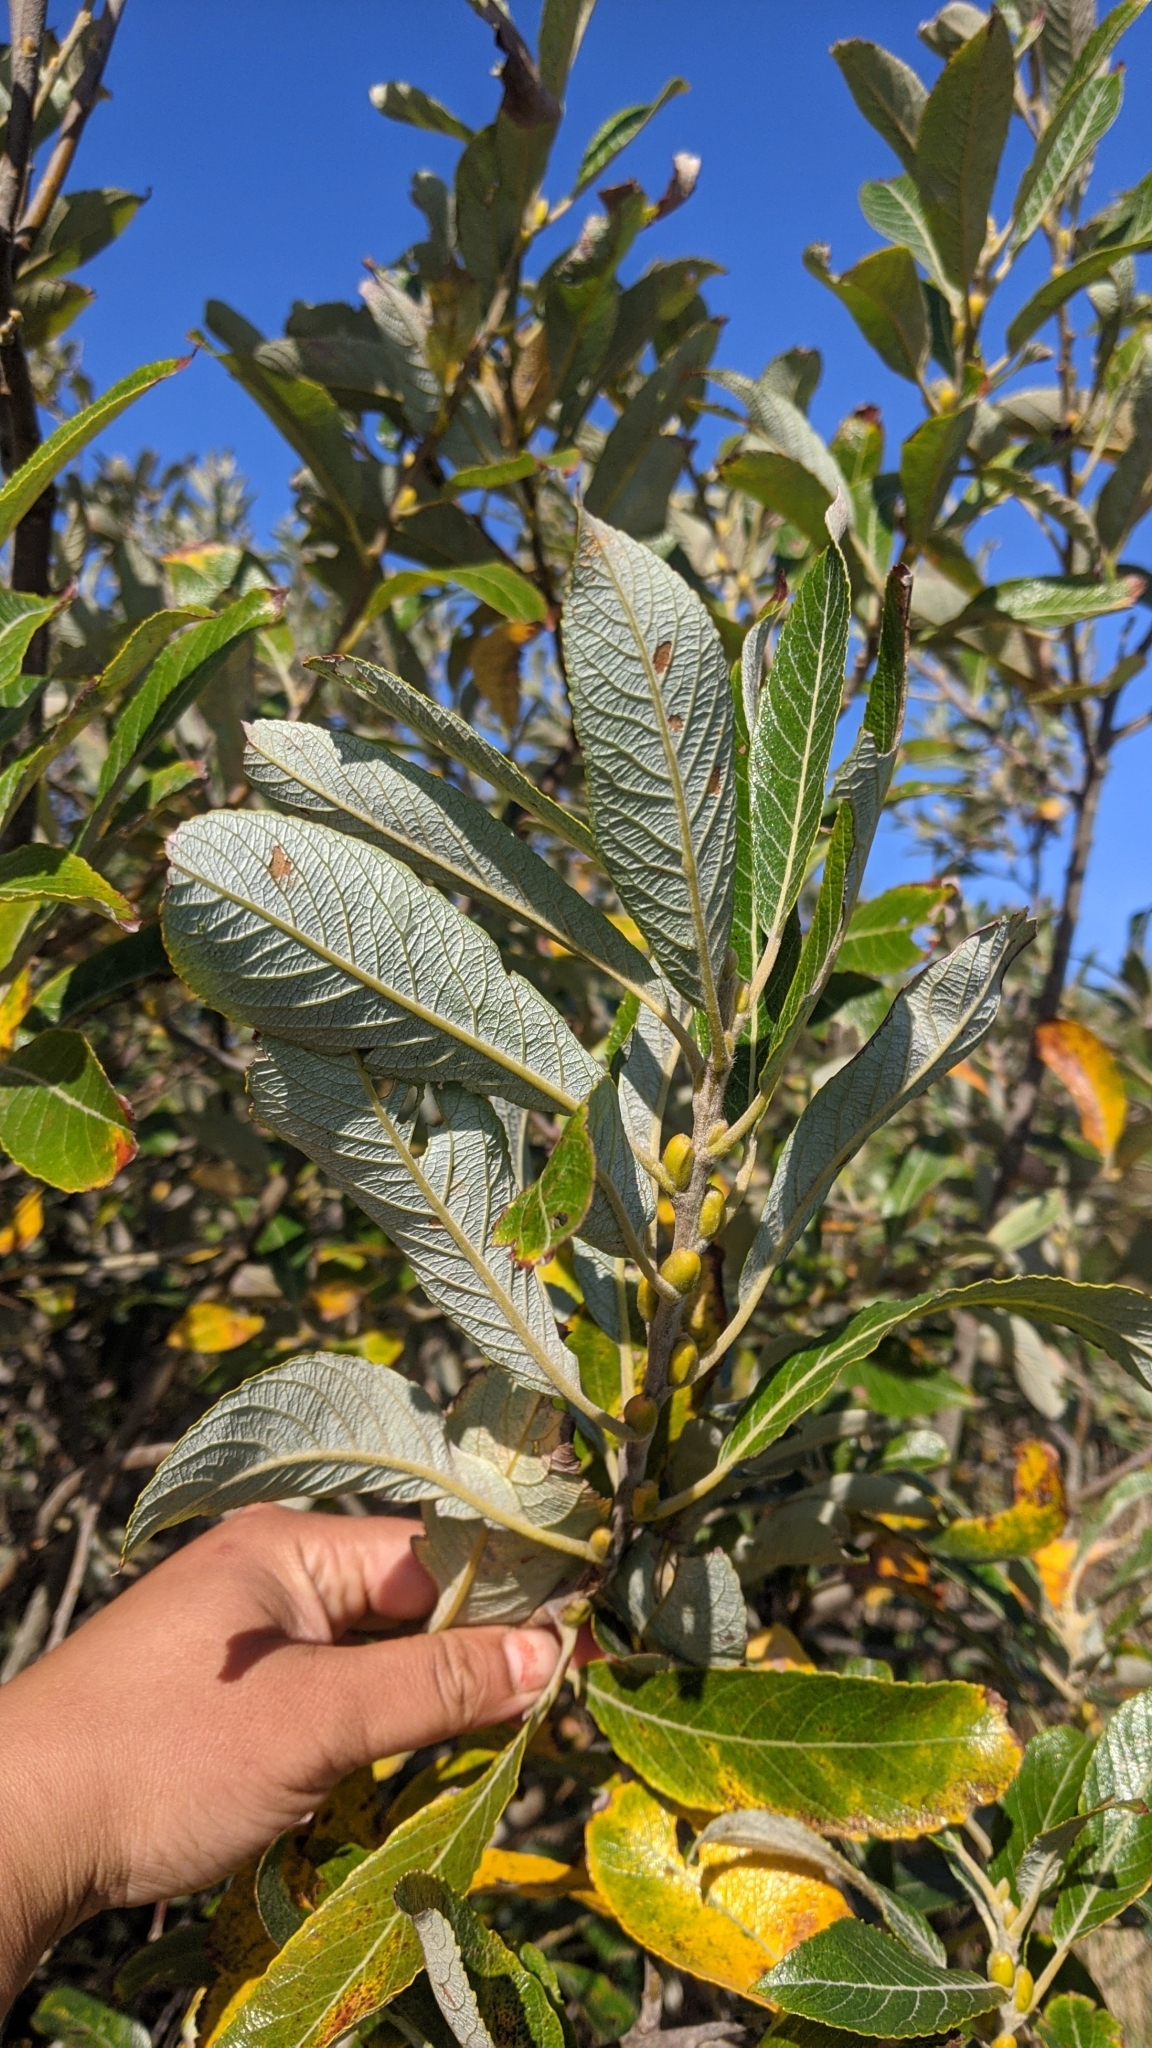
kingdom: Plantae
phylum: Tracheophyta
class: Magnoliopsida
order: Malpighiales
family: Salicaceae
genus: Salix
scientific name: Salix hookeriana
